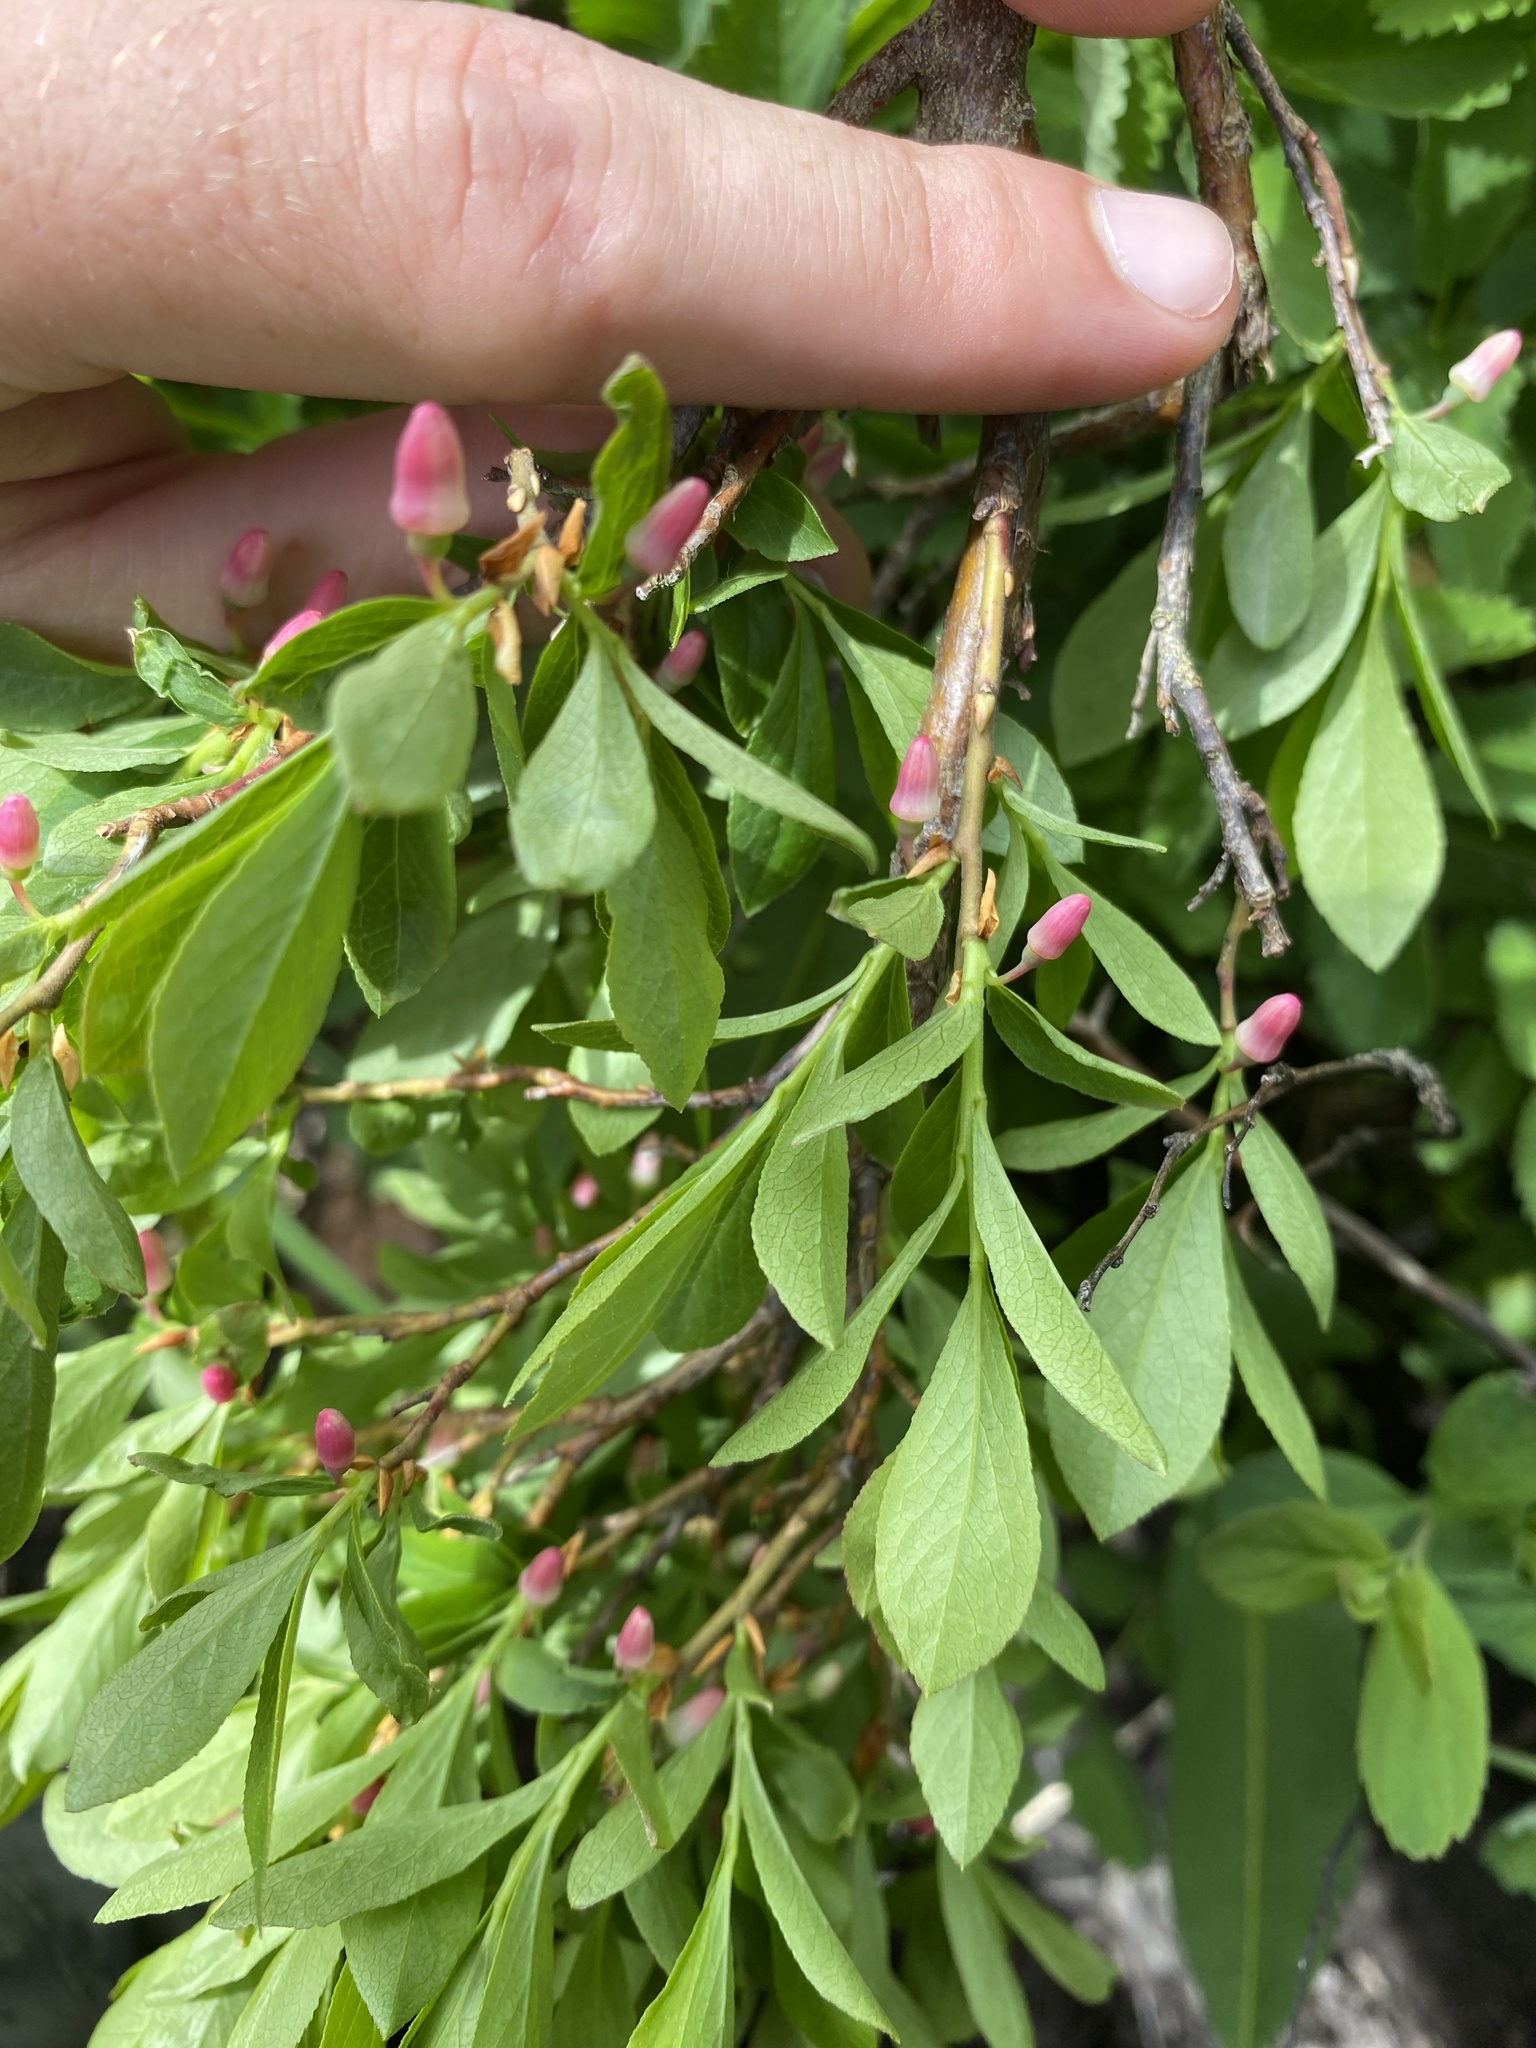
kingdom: Plantae
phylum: Tracheophyta
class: Magnoliopsida
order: Ericales
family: Ericaceae
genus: Vaccinium
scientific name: Vaccinium cespitosum
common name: Dwarf bilberry
